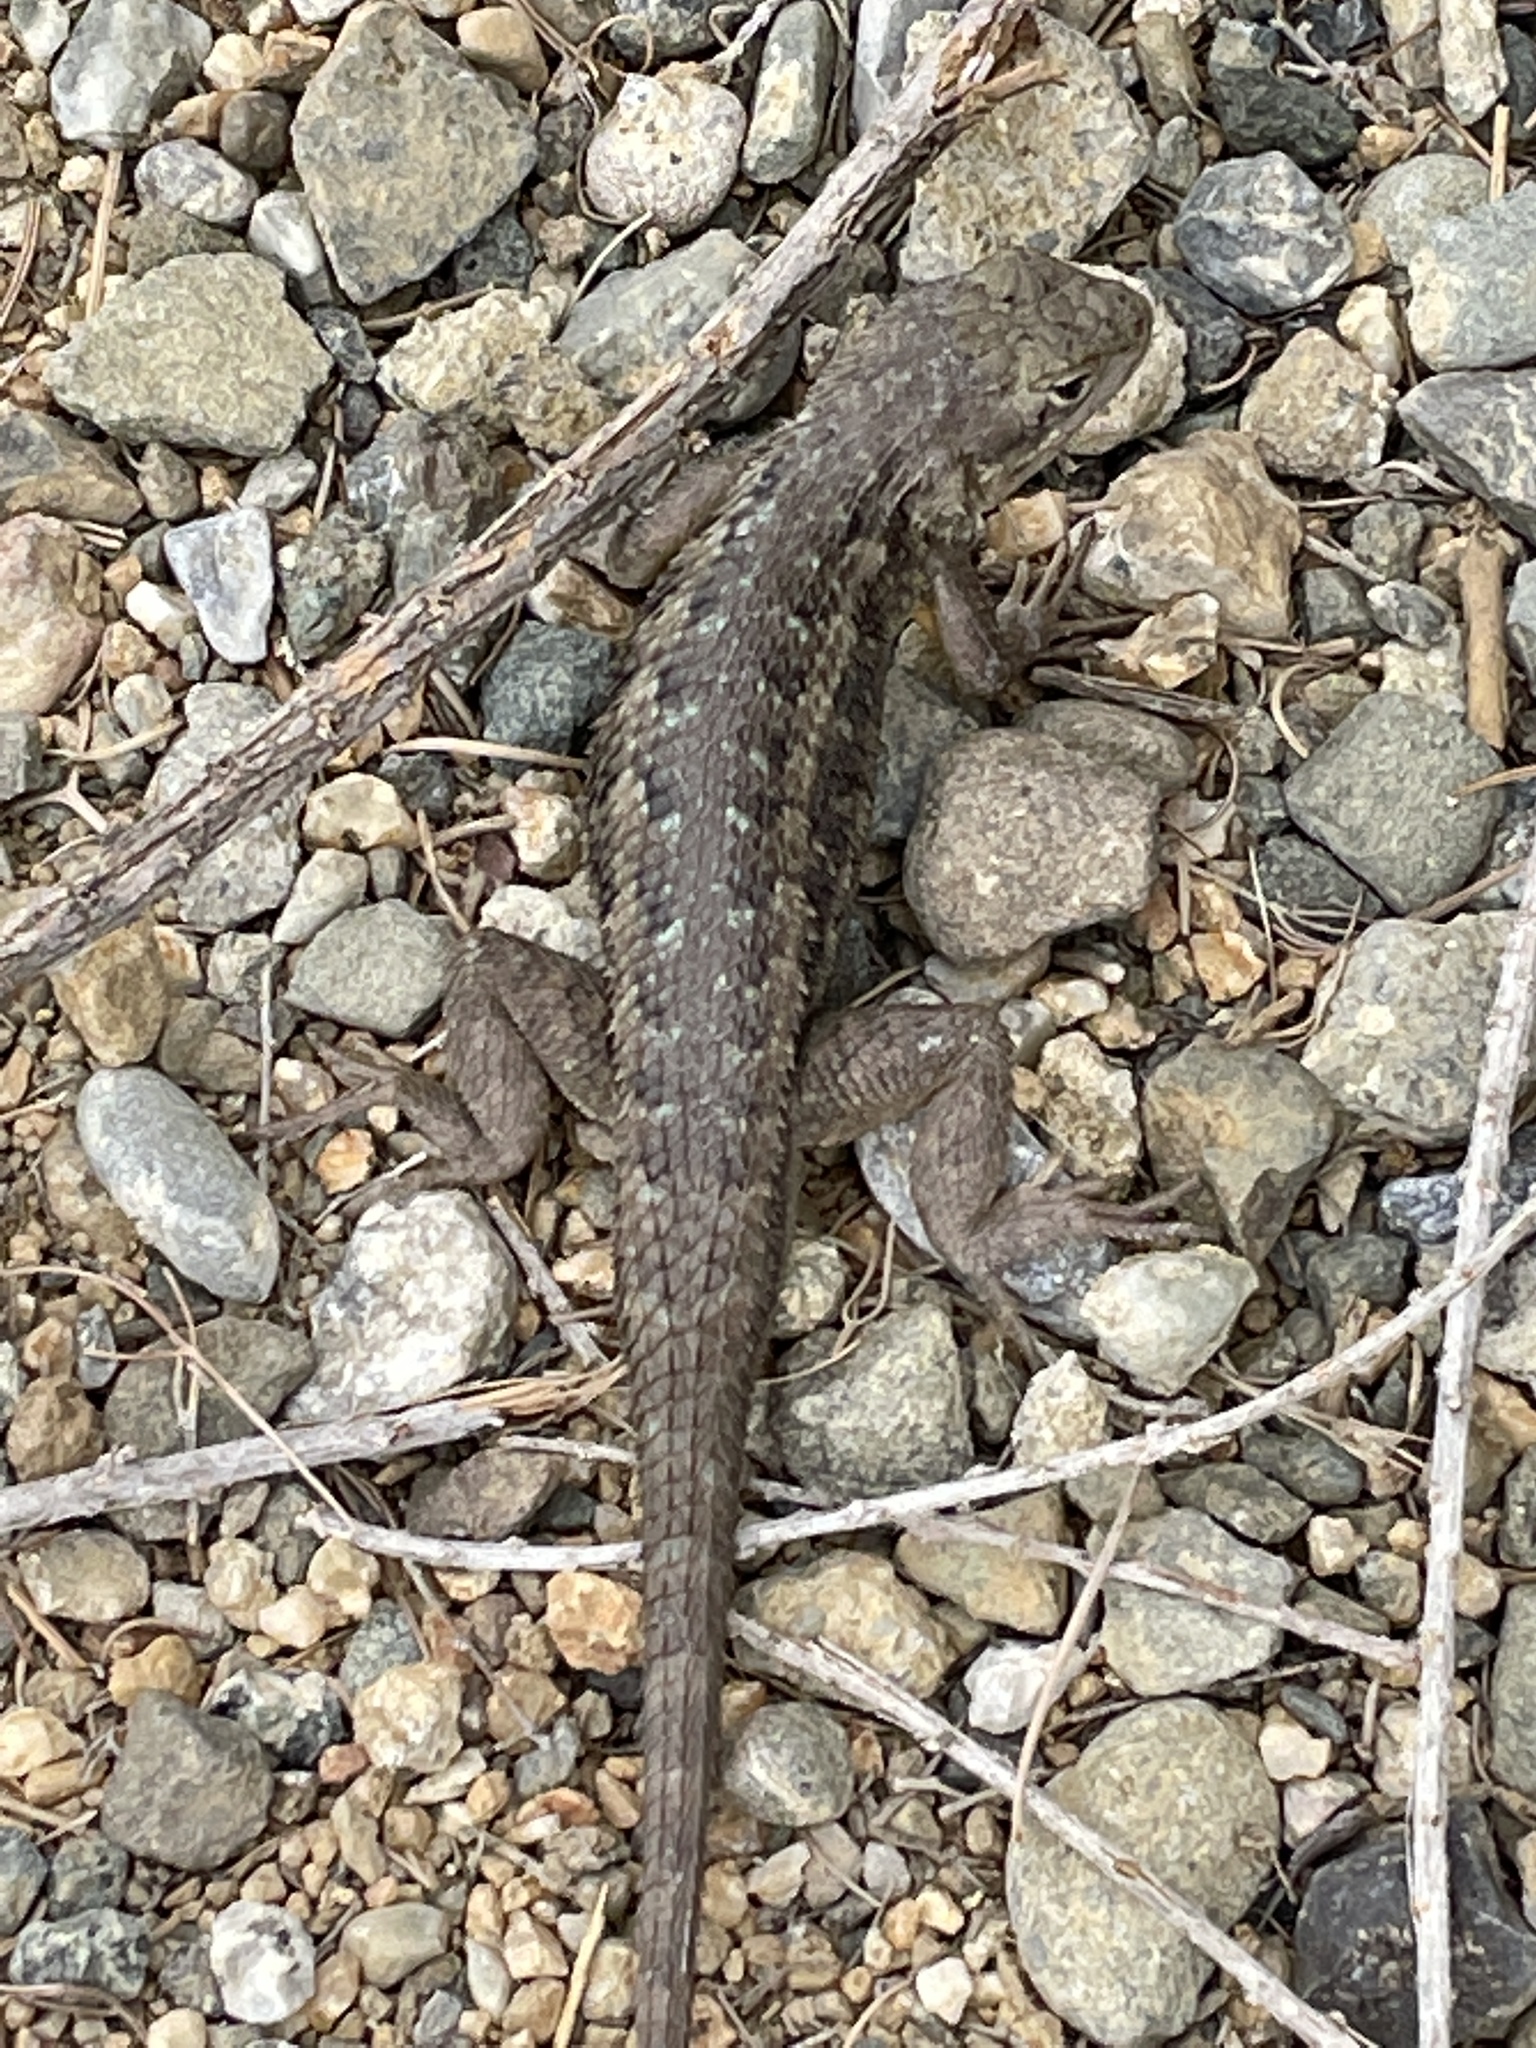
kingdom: Animalia
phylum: Chordata
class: Squamata
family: Phrynosomatidae
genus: Sceloporus
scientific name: Sceloporus occidentalis
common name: Western fence lizard
